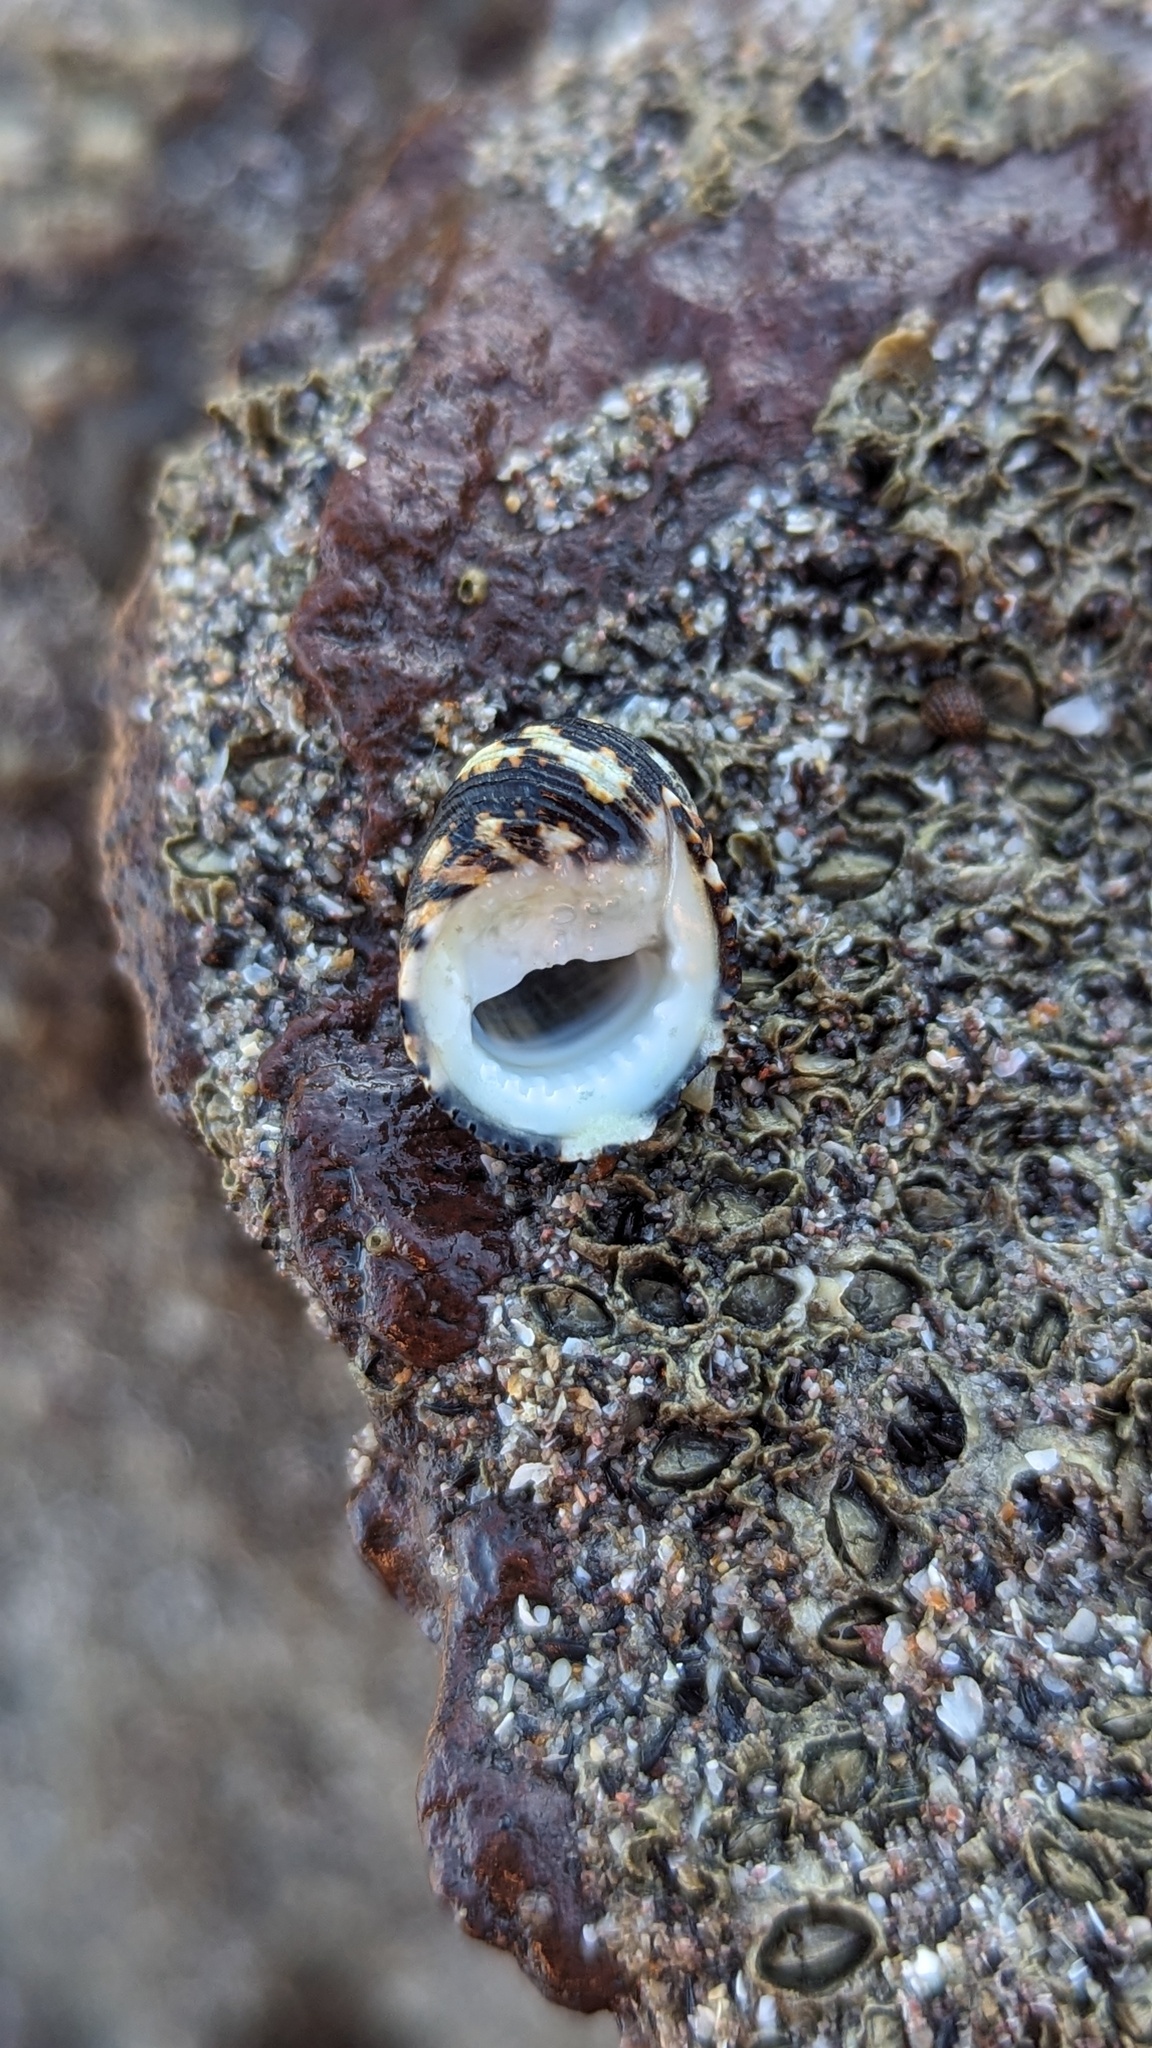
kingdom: Animalia
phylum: Mollusca
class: Gastropoda
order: Cycloneritida
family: Neritidae
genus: Nerita
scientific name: Nerita funiculata
